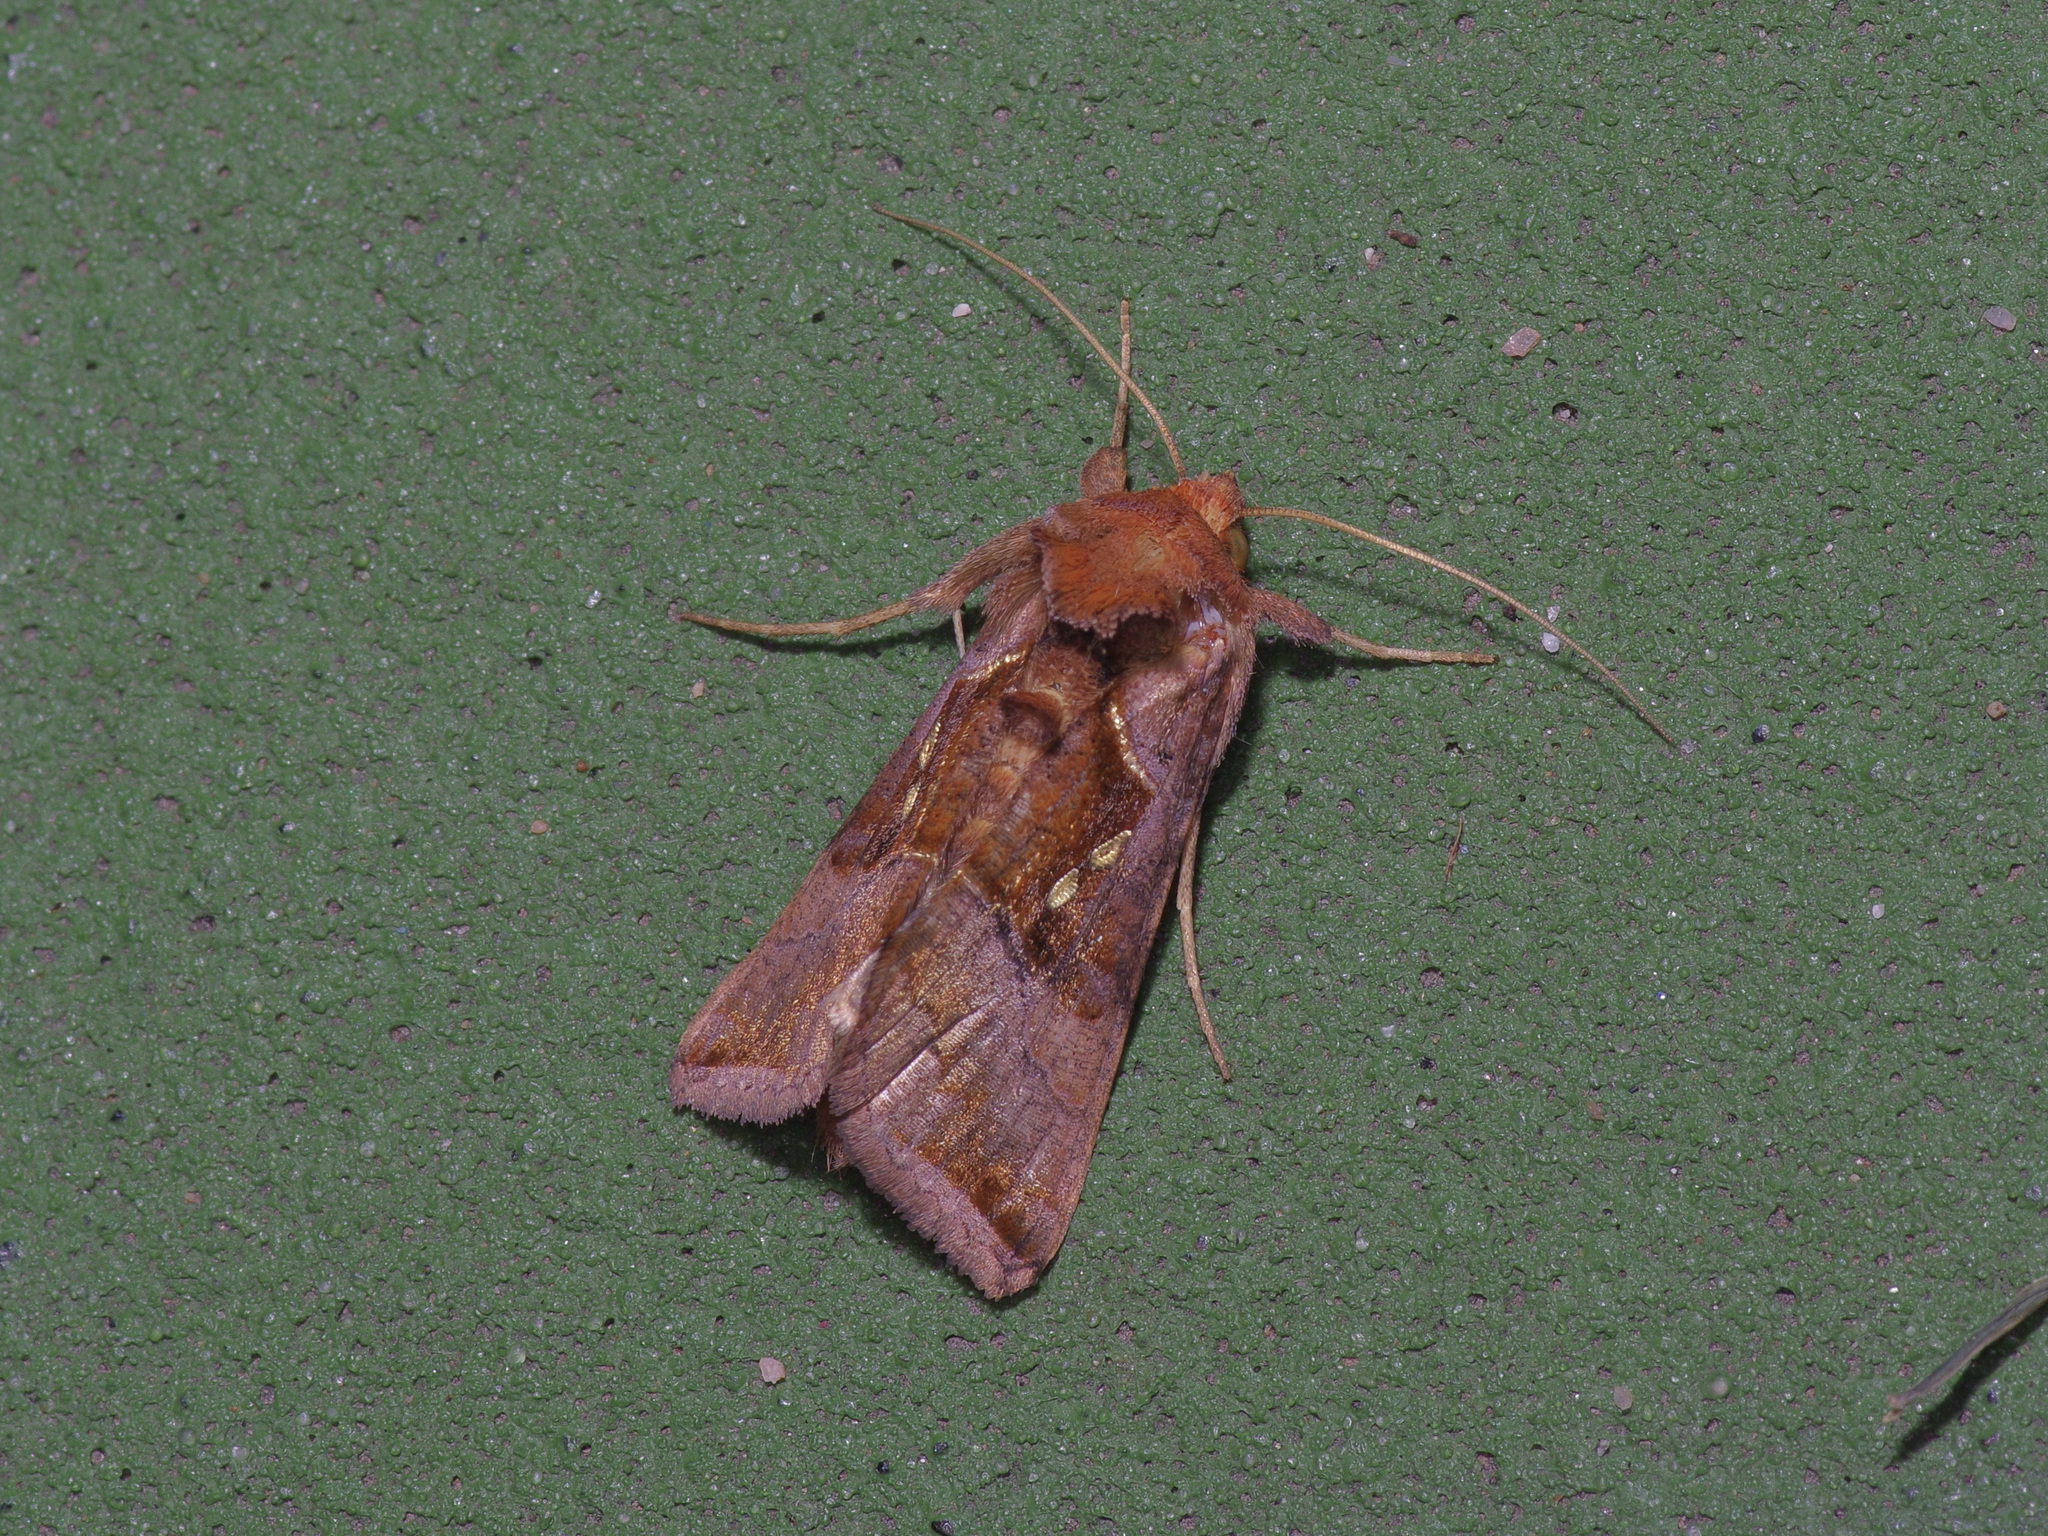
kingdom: Animalia
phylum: Arthropoda
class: Insecta
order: Lepidoptera
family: Noctuidae
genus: Enigmogramma
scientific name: Enigmogramma basigera
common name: Pink-washed looper moth
